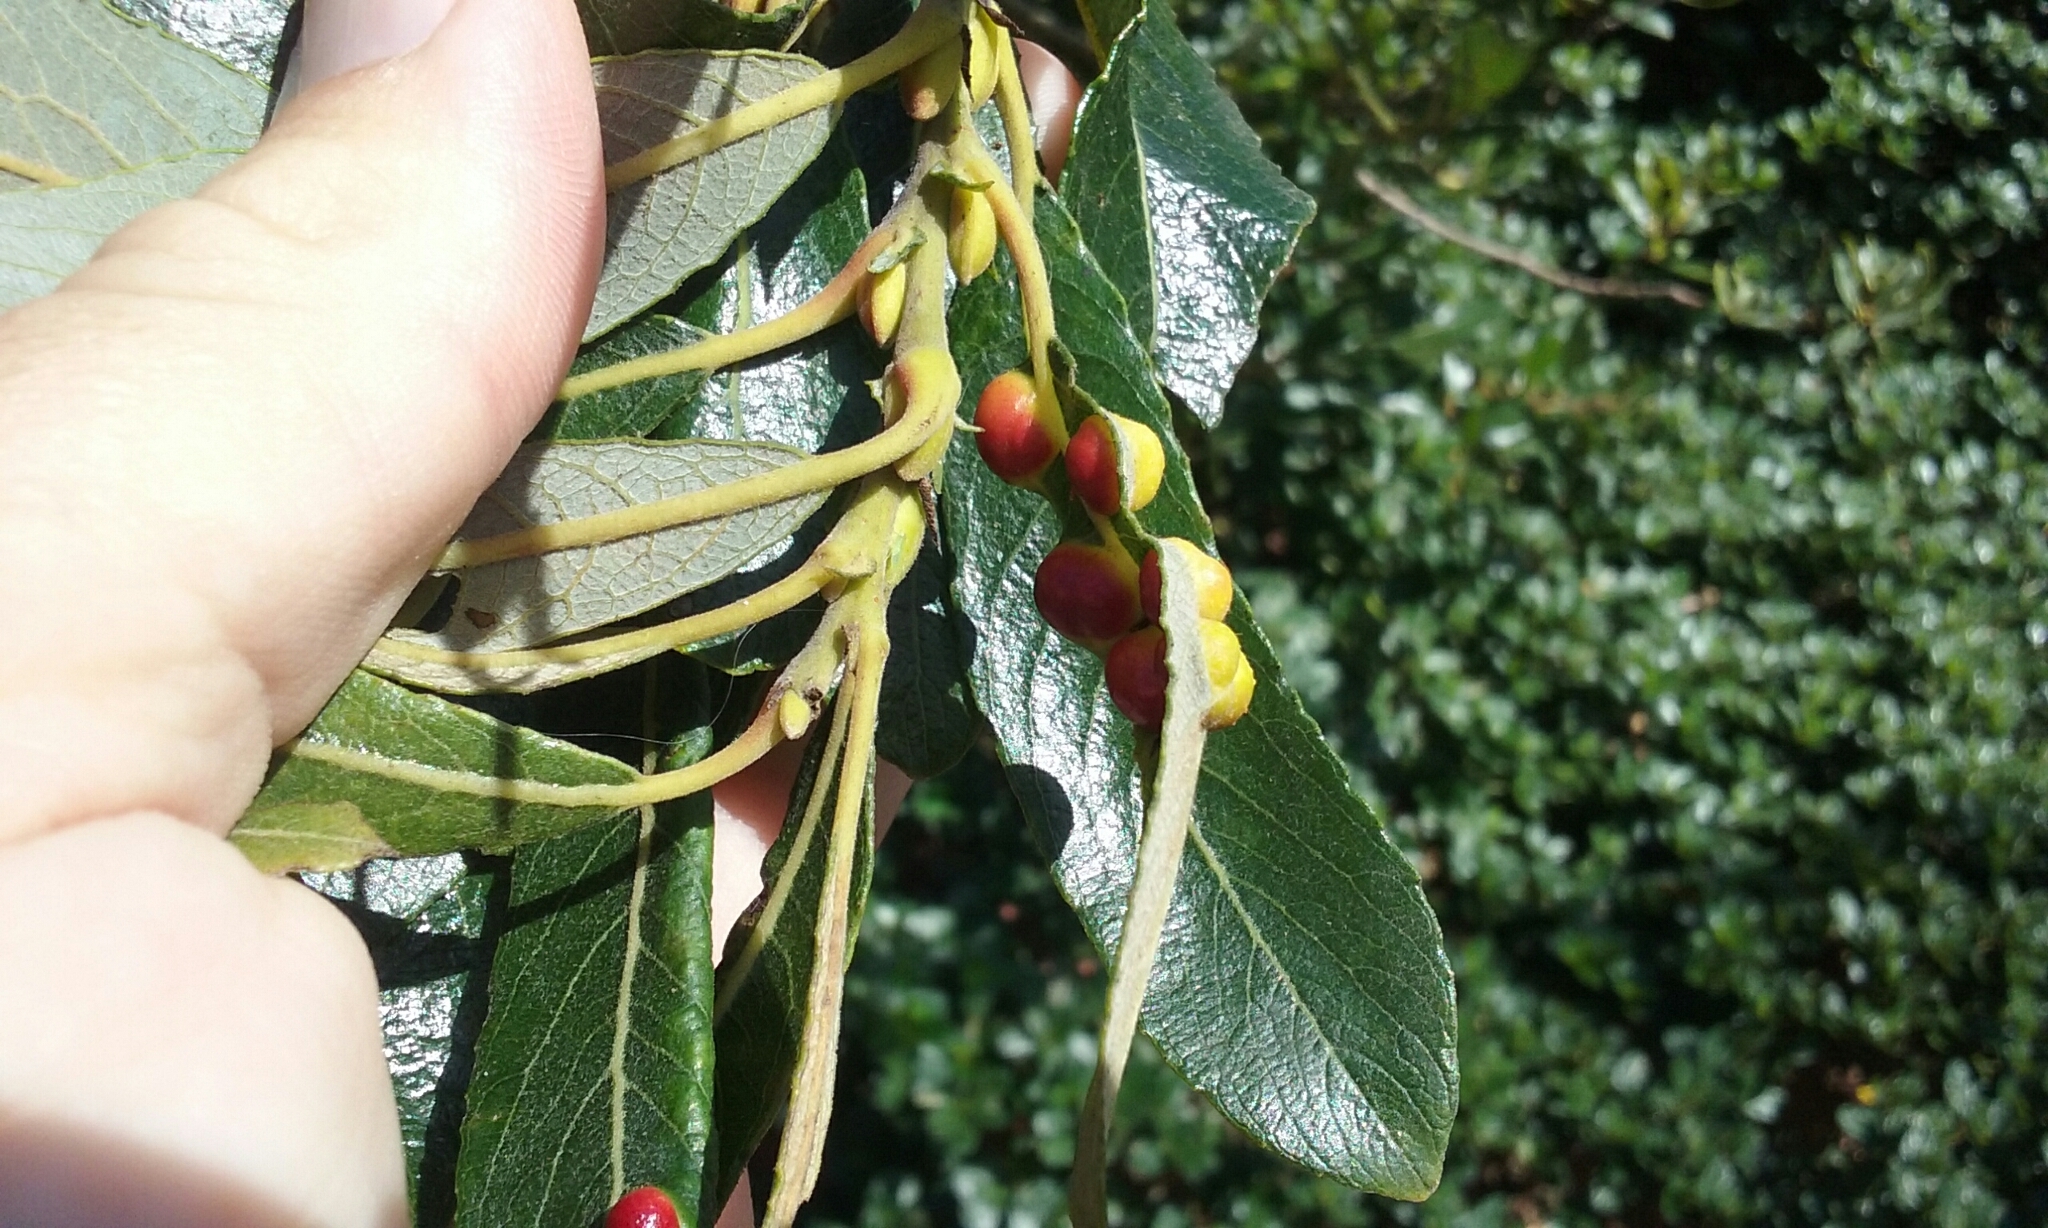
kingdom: Animalia
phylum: Arthropoda
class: Insecta
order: Hymenoptera
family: Tenthredinidae
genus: Euura
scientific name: Euura
